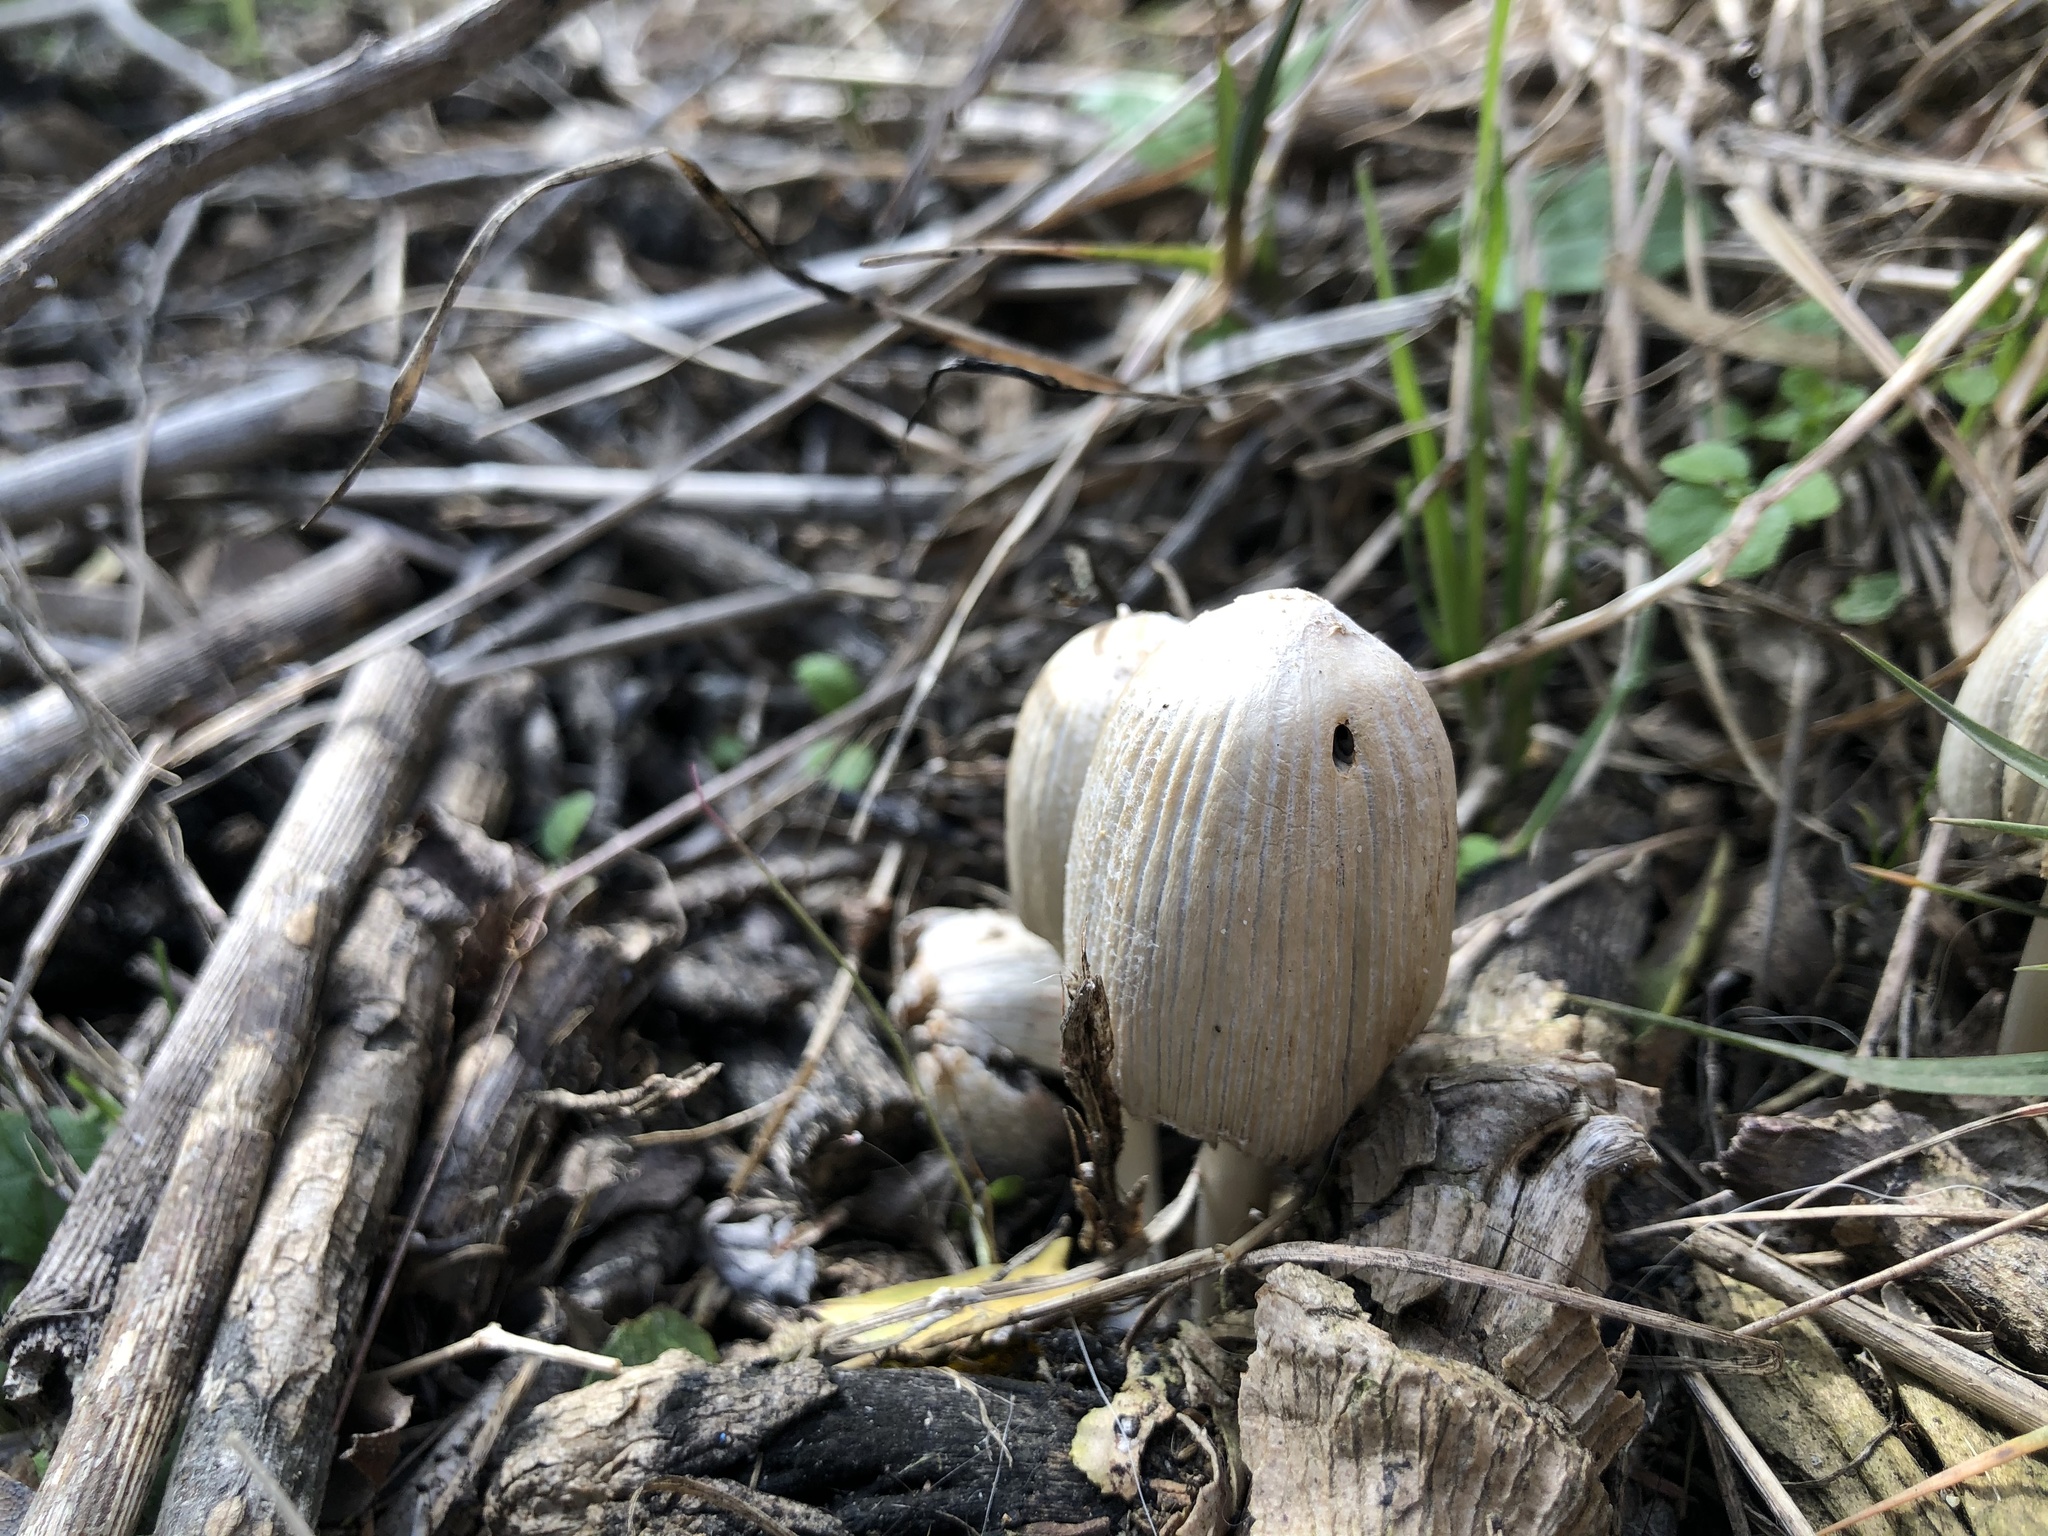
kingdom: Fungi
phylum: Basidiomycota
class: Agaricomycetes
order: Agaricales
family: Psathyrellaceae
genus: Coprinellus
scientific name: Coprinellus flocculosus
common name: Flocculose inkcap
